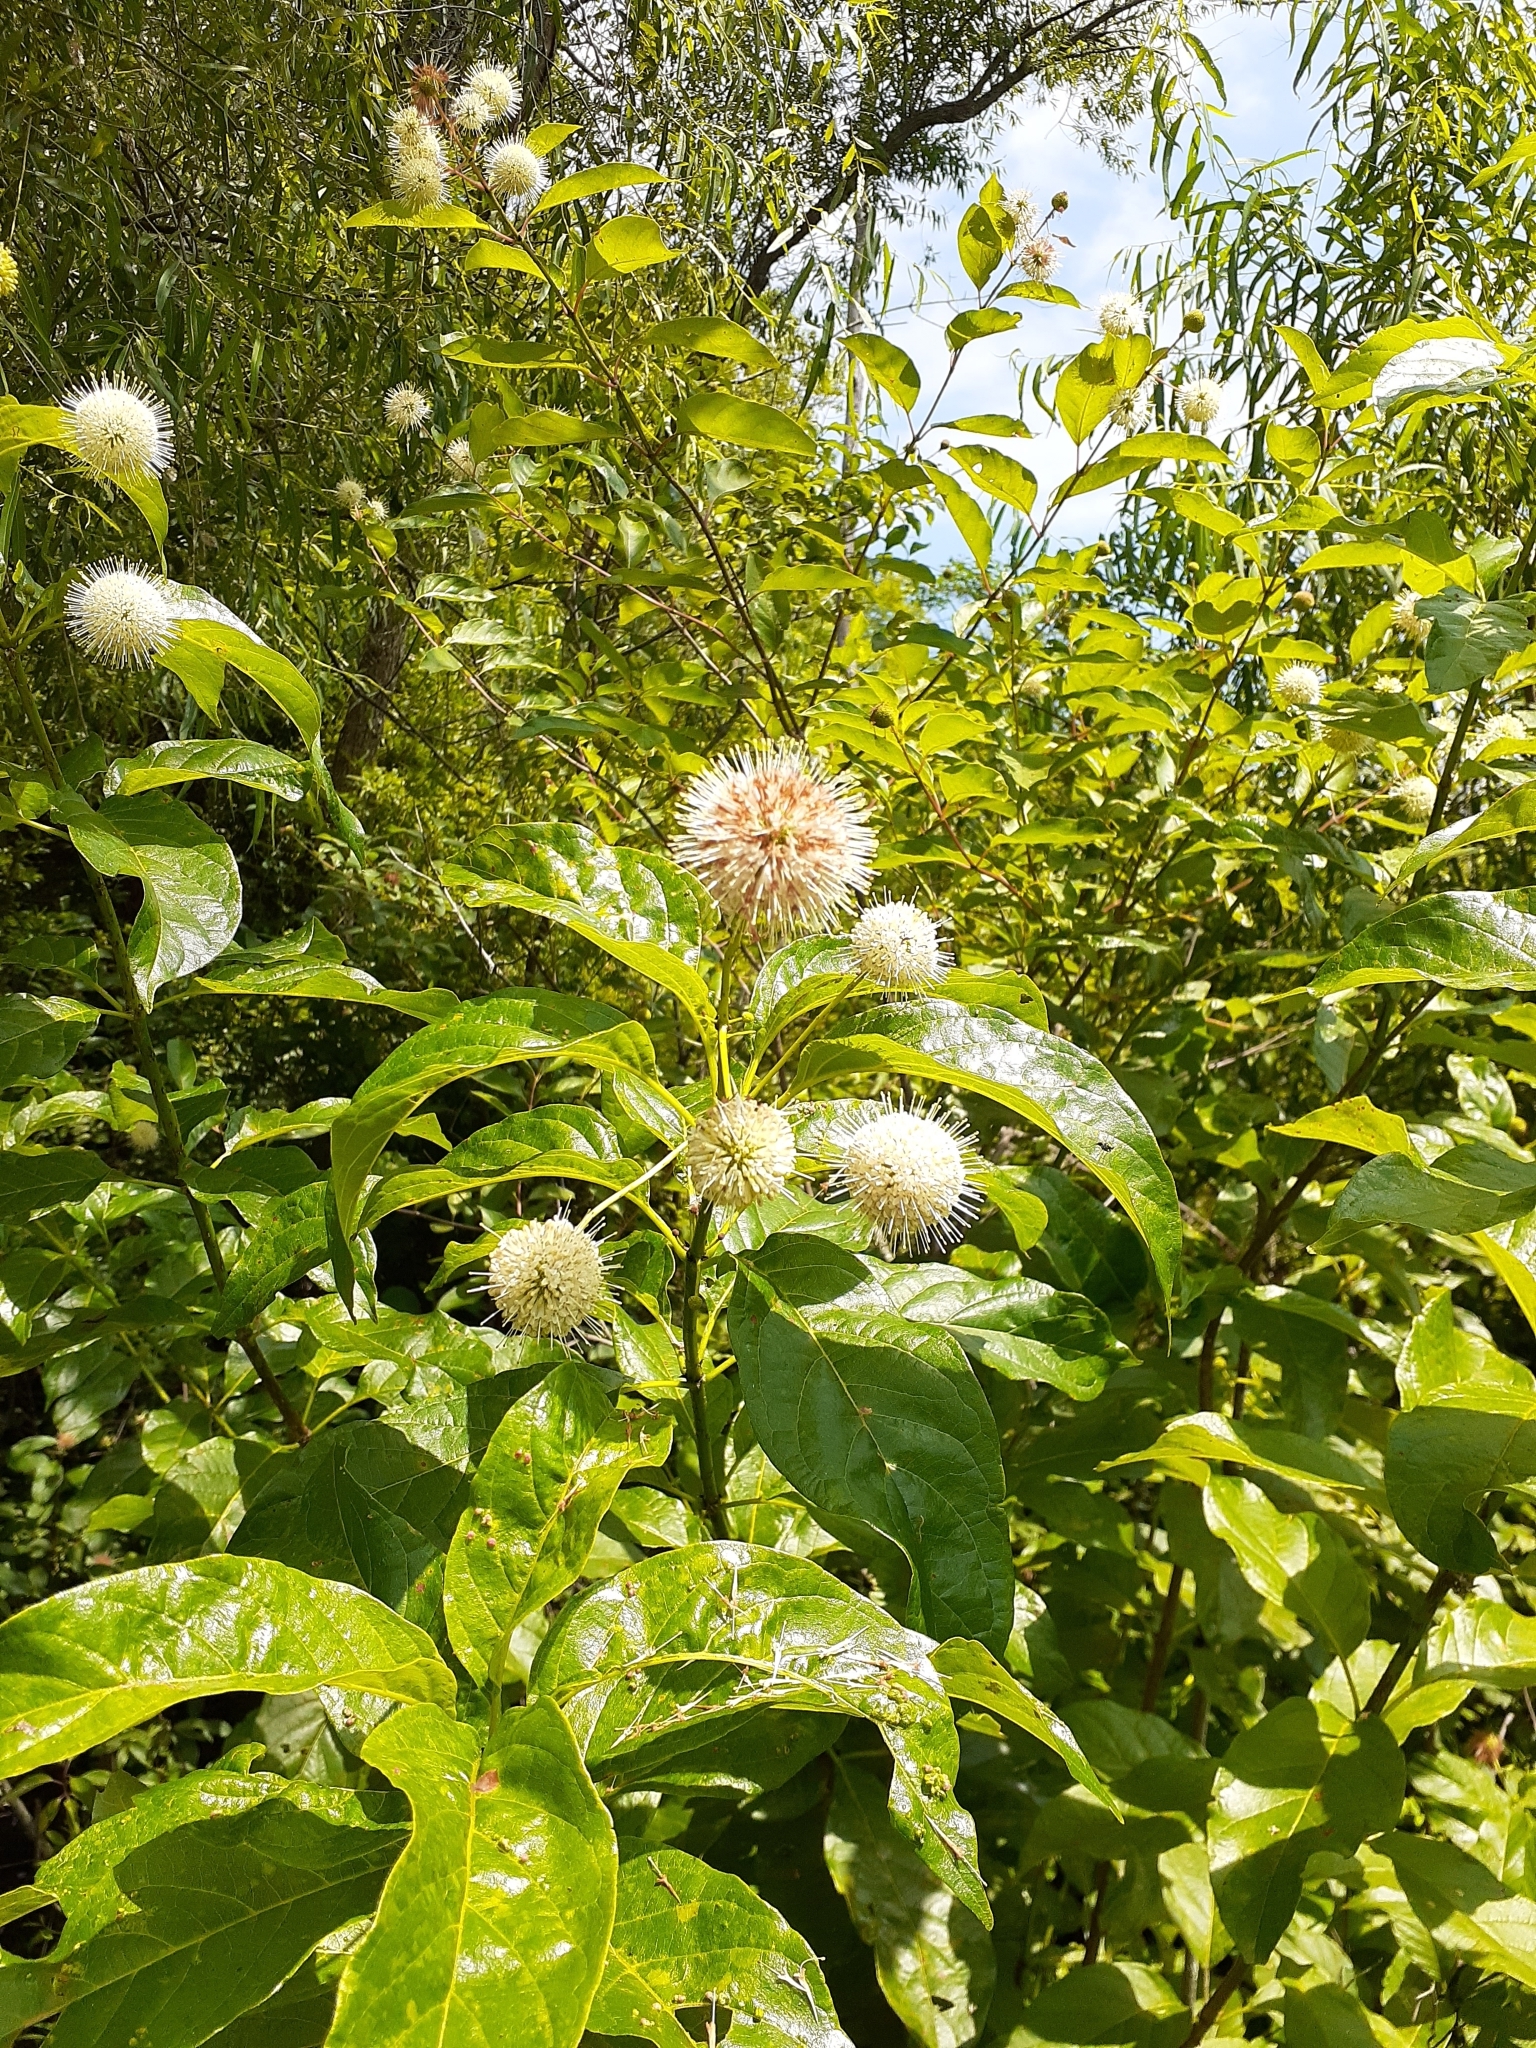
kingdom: Plantae
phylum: Tracheophyta
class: Magnoliopsida
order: Gentianales
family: Rubiaceae
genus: Cephalanthus
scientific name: Cephalanthus occidentalis
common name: Button-willow
